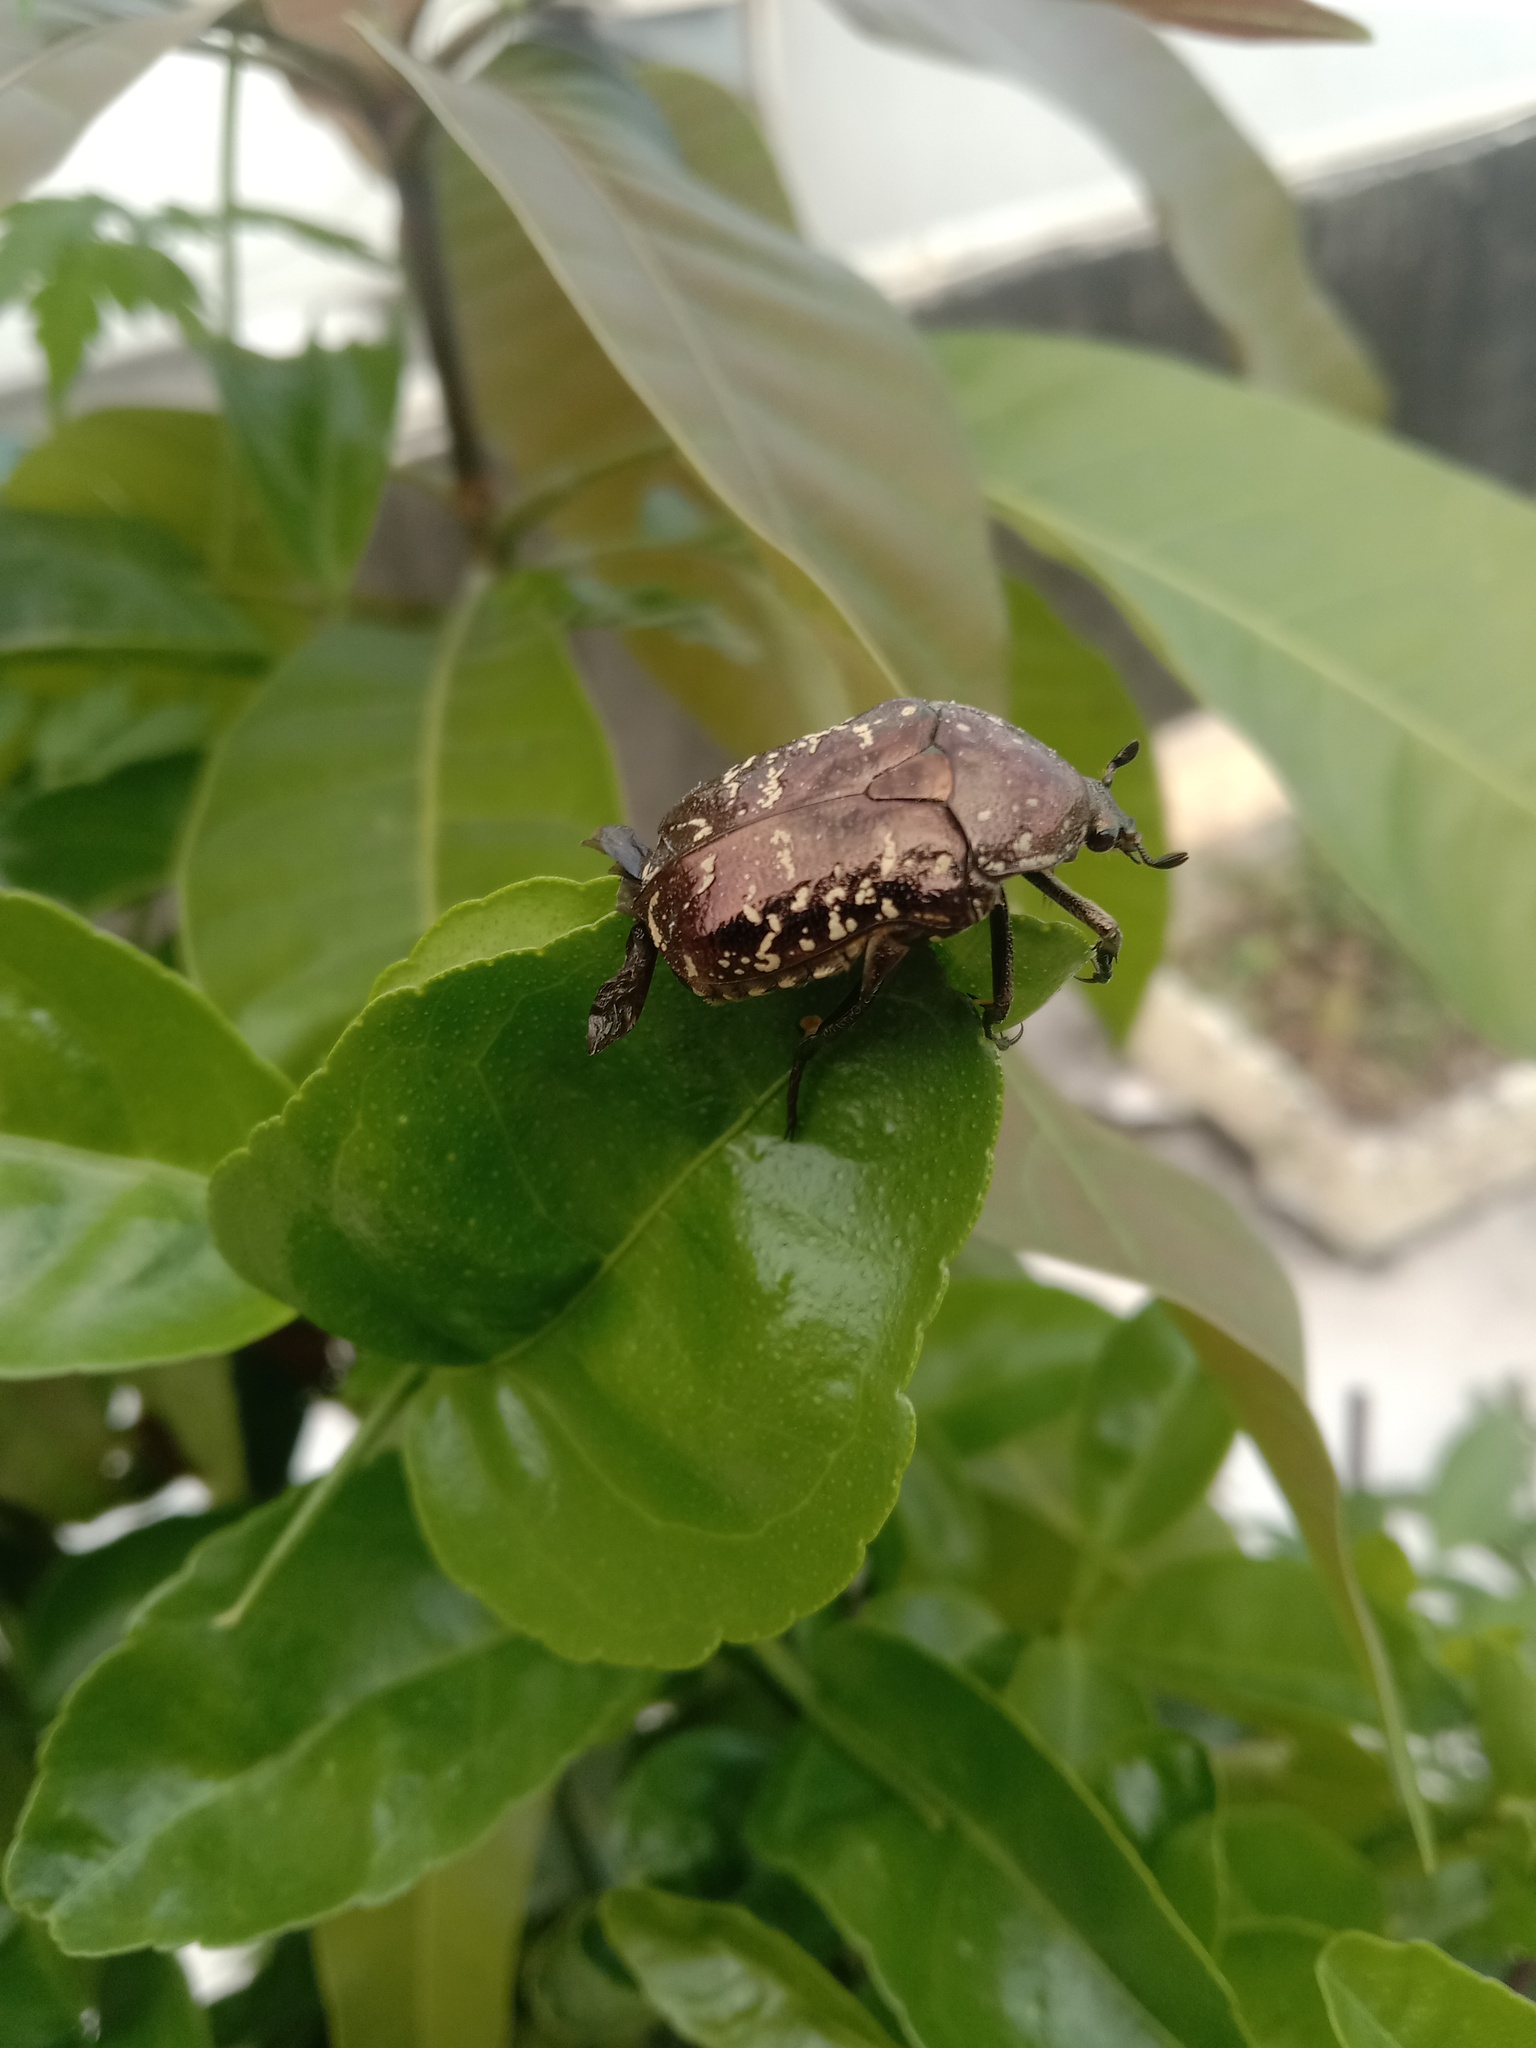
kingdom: Animalia
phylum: Arthropoda
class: Insecta
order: Coleoptera
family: Scarabaeidae
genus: Protaetia
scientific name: Protaetia orientalis
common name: Oriental flower beetle
